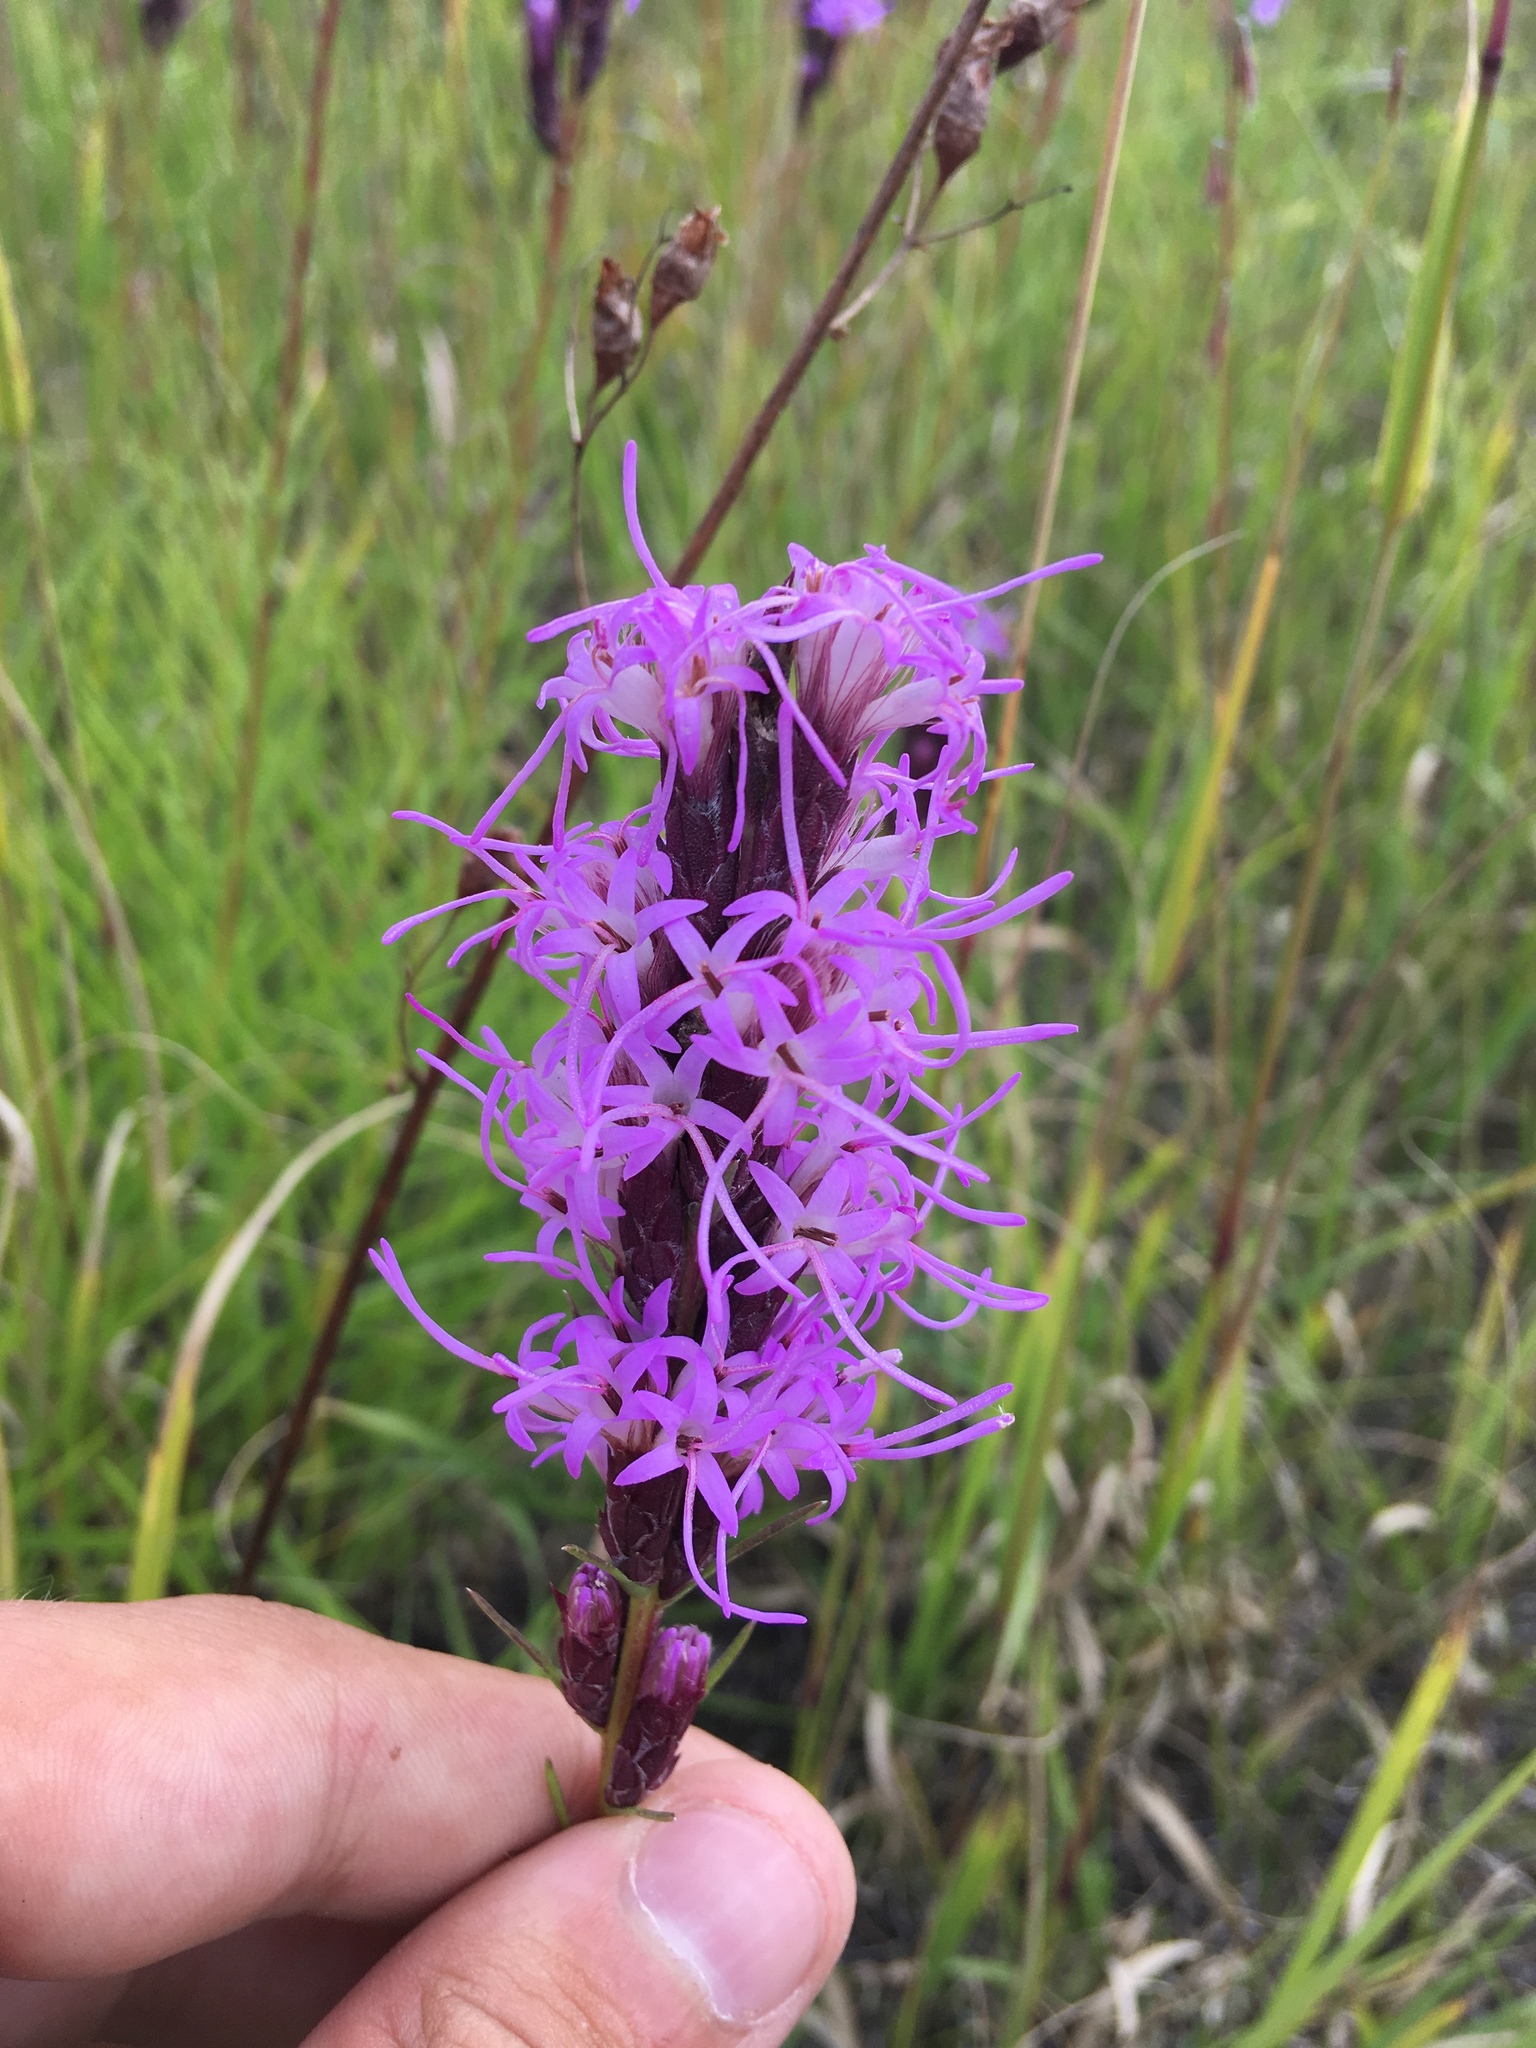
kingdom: Plantae
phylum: Tracheophyta
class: Magnoliopsida
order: Asterales
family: Asteraceae
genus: Liatris
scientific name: Liatris punctata
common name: Dotted gayfeather
